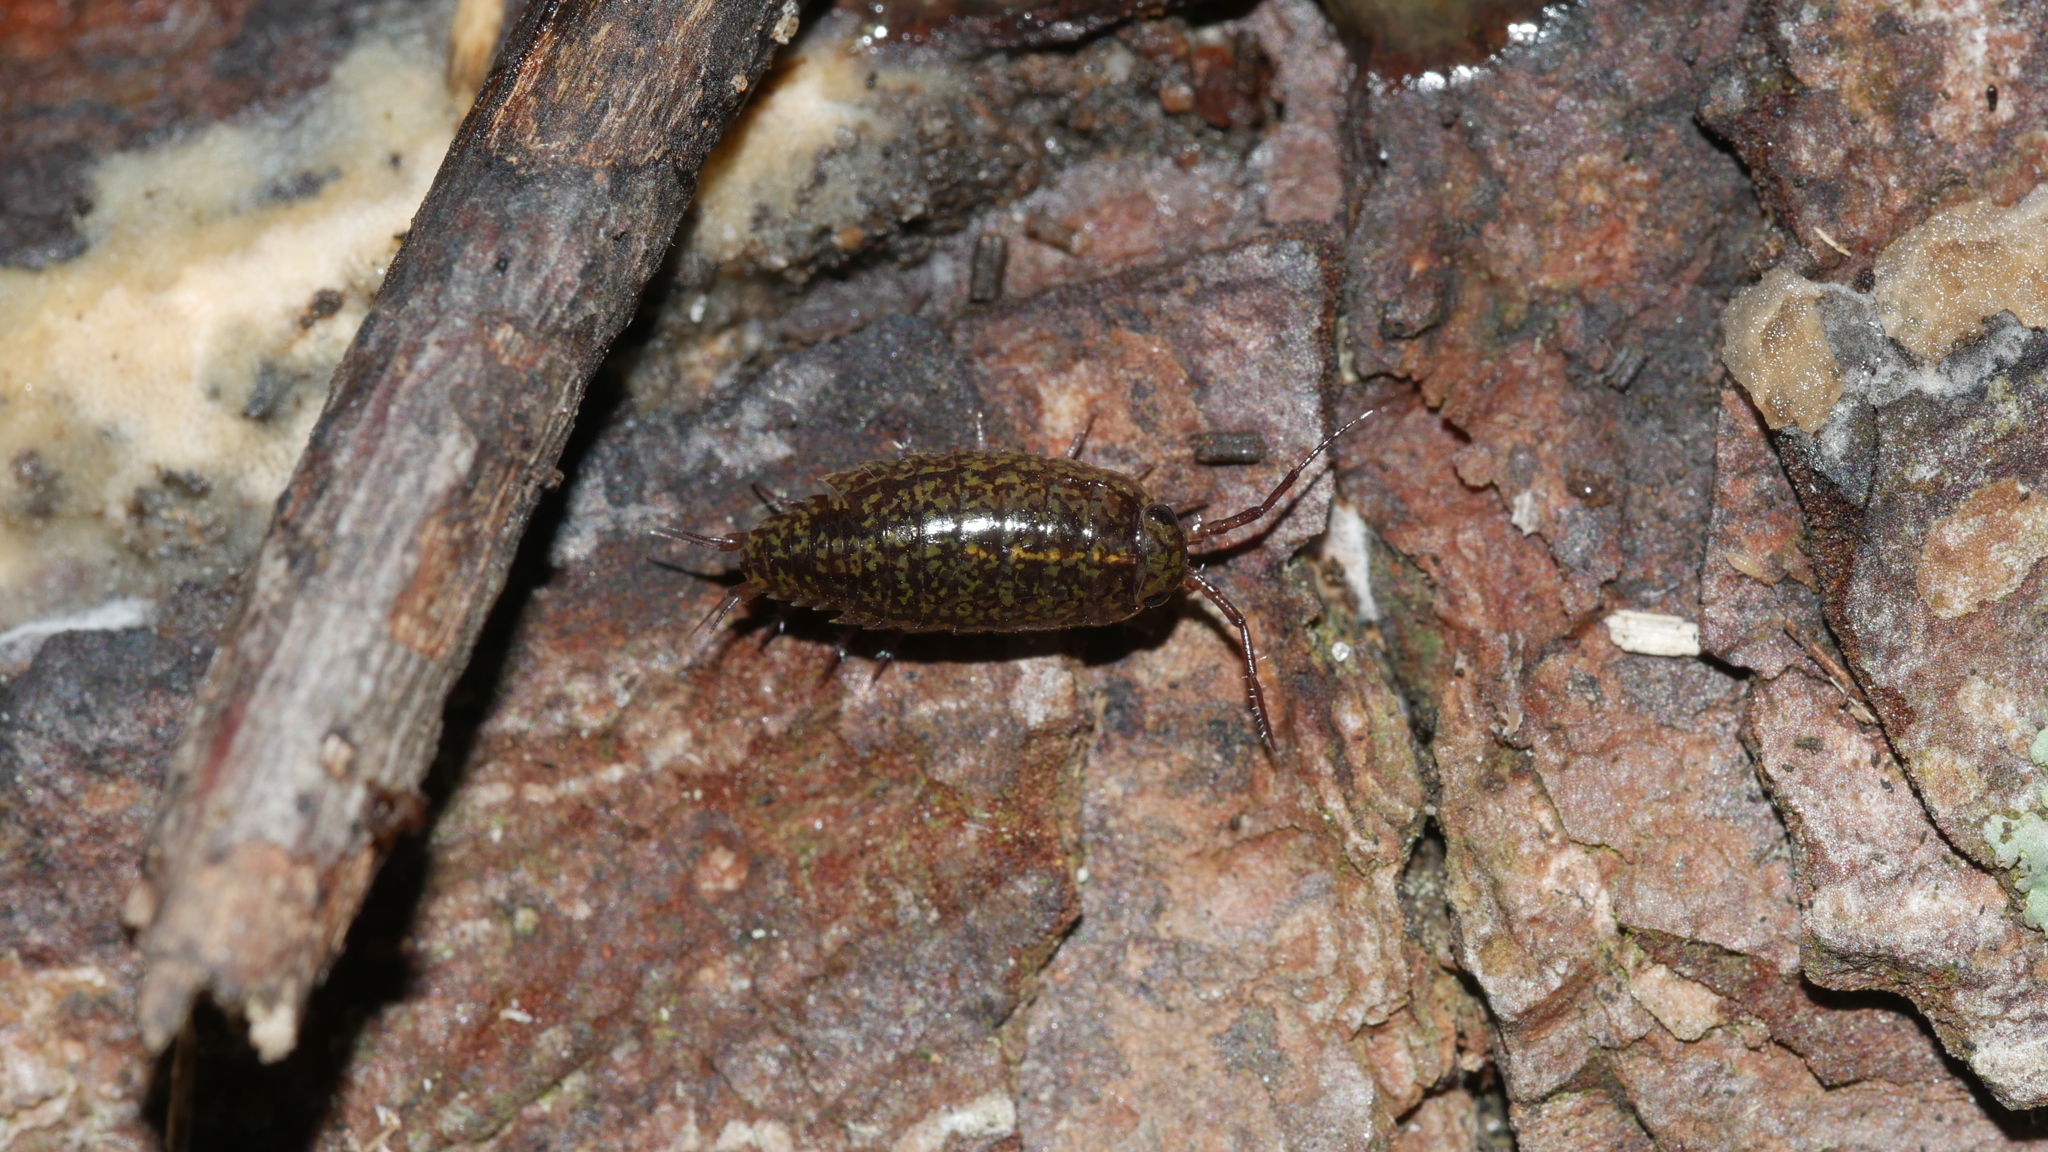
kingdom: Animalia
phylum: Arthropoda
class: Malacostraca
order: Isopoda
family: Ligiidae
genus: Ligidium
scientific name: Ligidium elrodii
